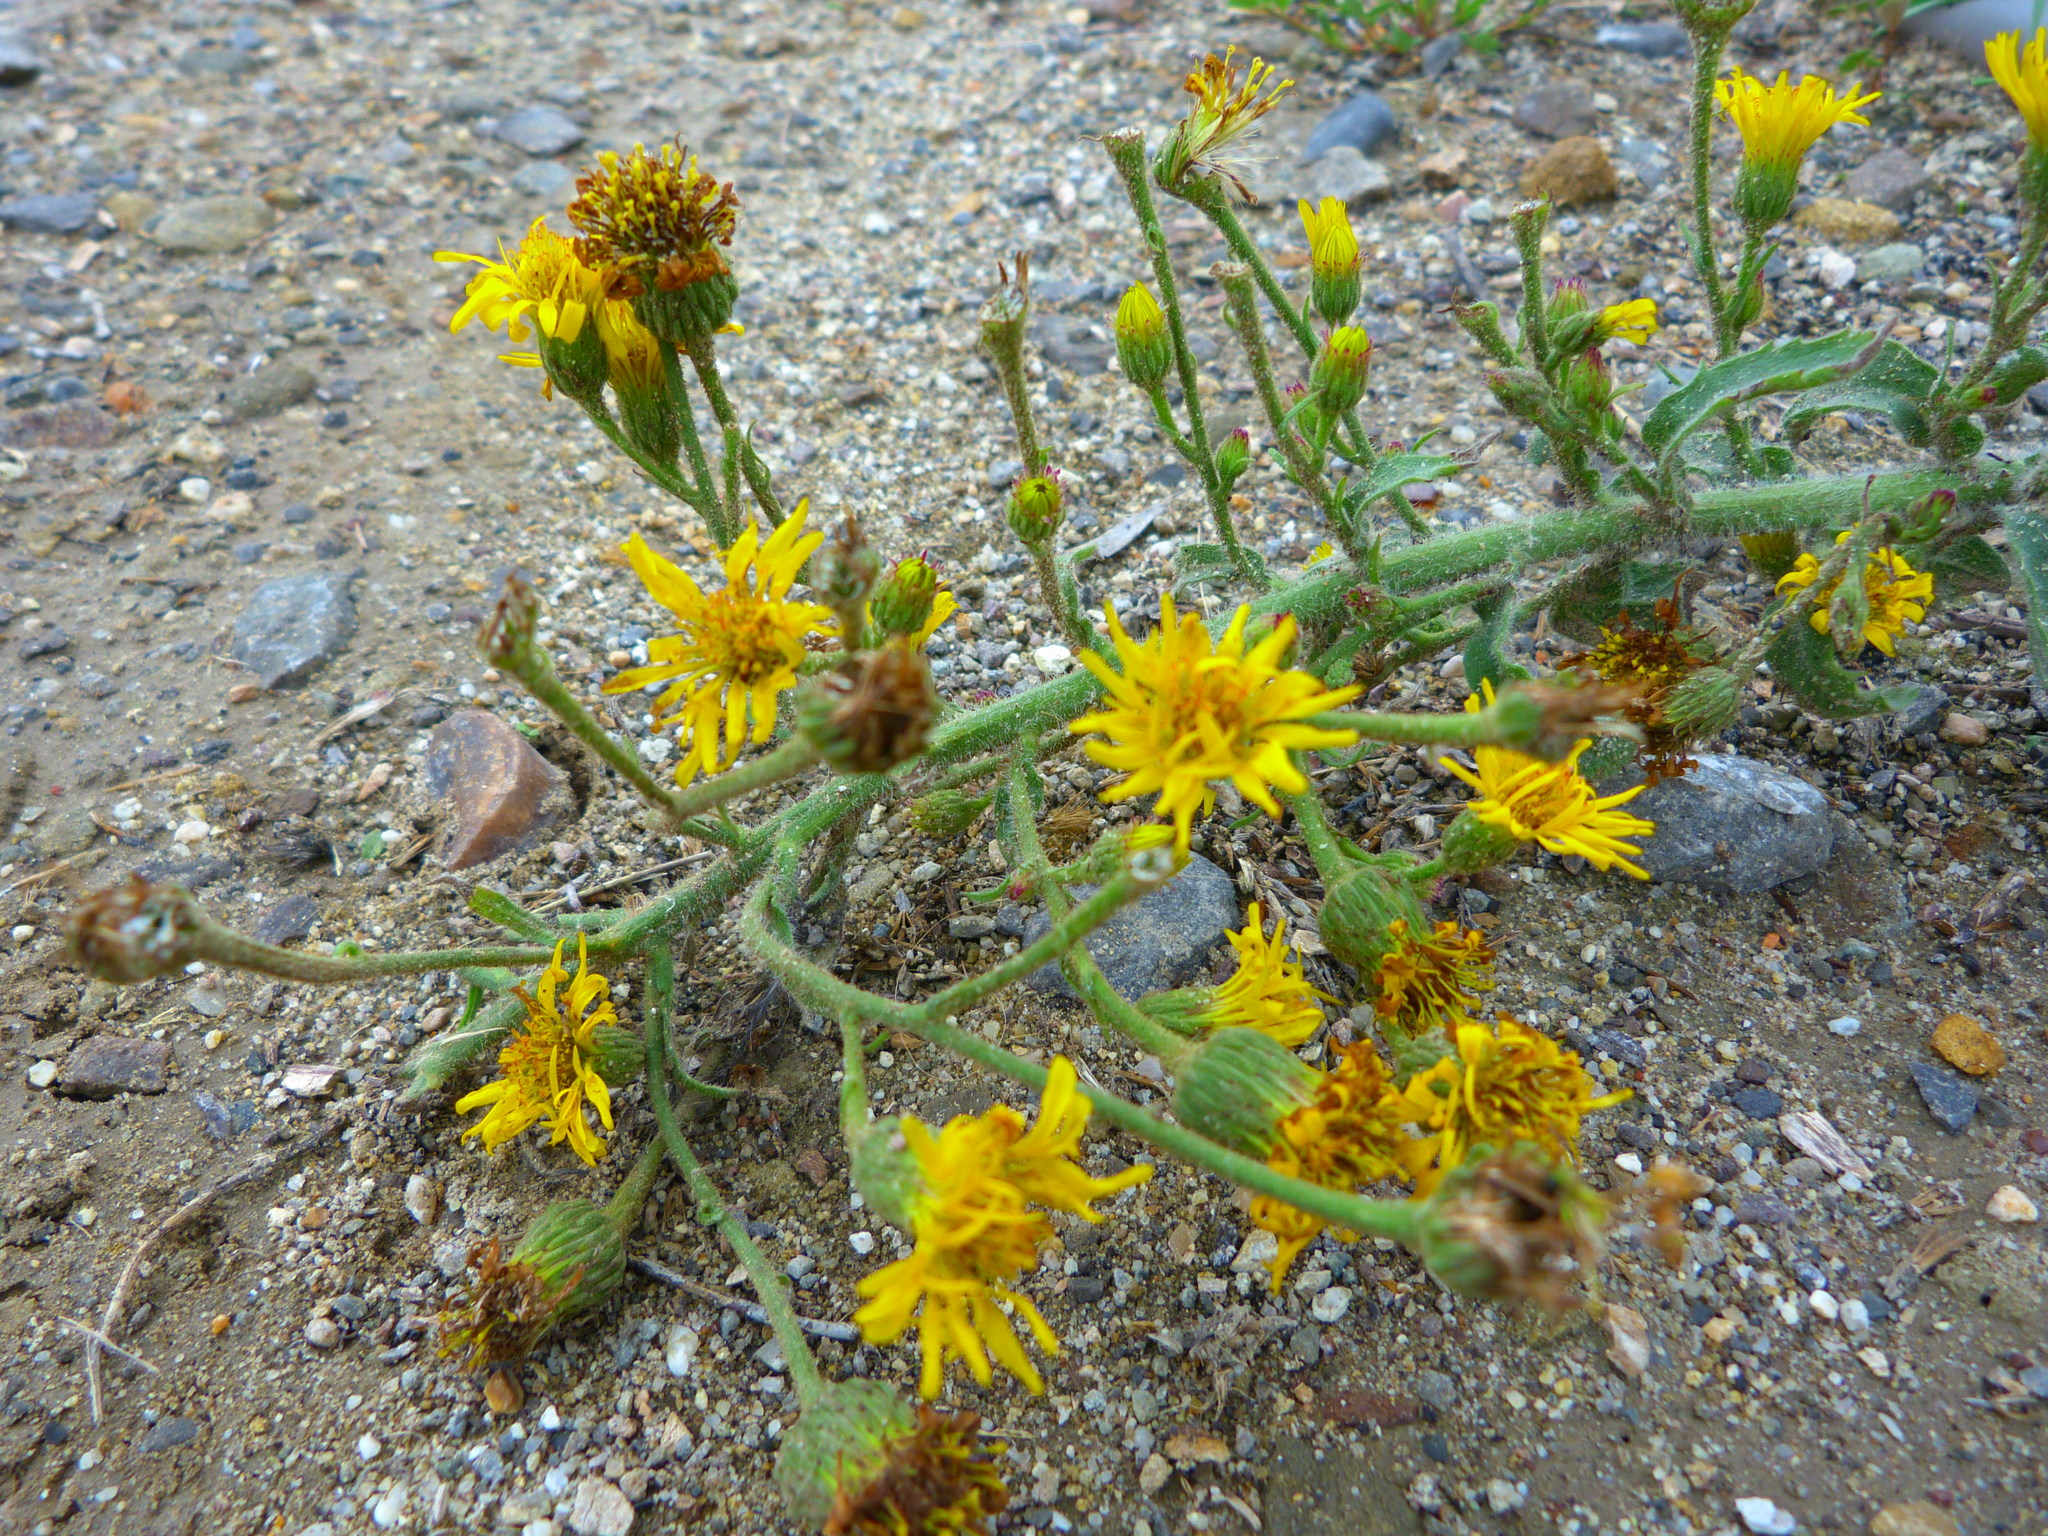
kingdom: Plantae
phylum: Tracheophyta
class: Magnoliopsida
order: Asterales
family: Asteraceae
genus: Heterotheca
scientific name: Heterotheca grandiflora
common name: Telegraphweed
